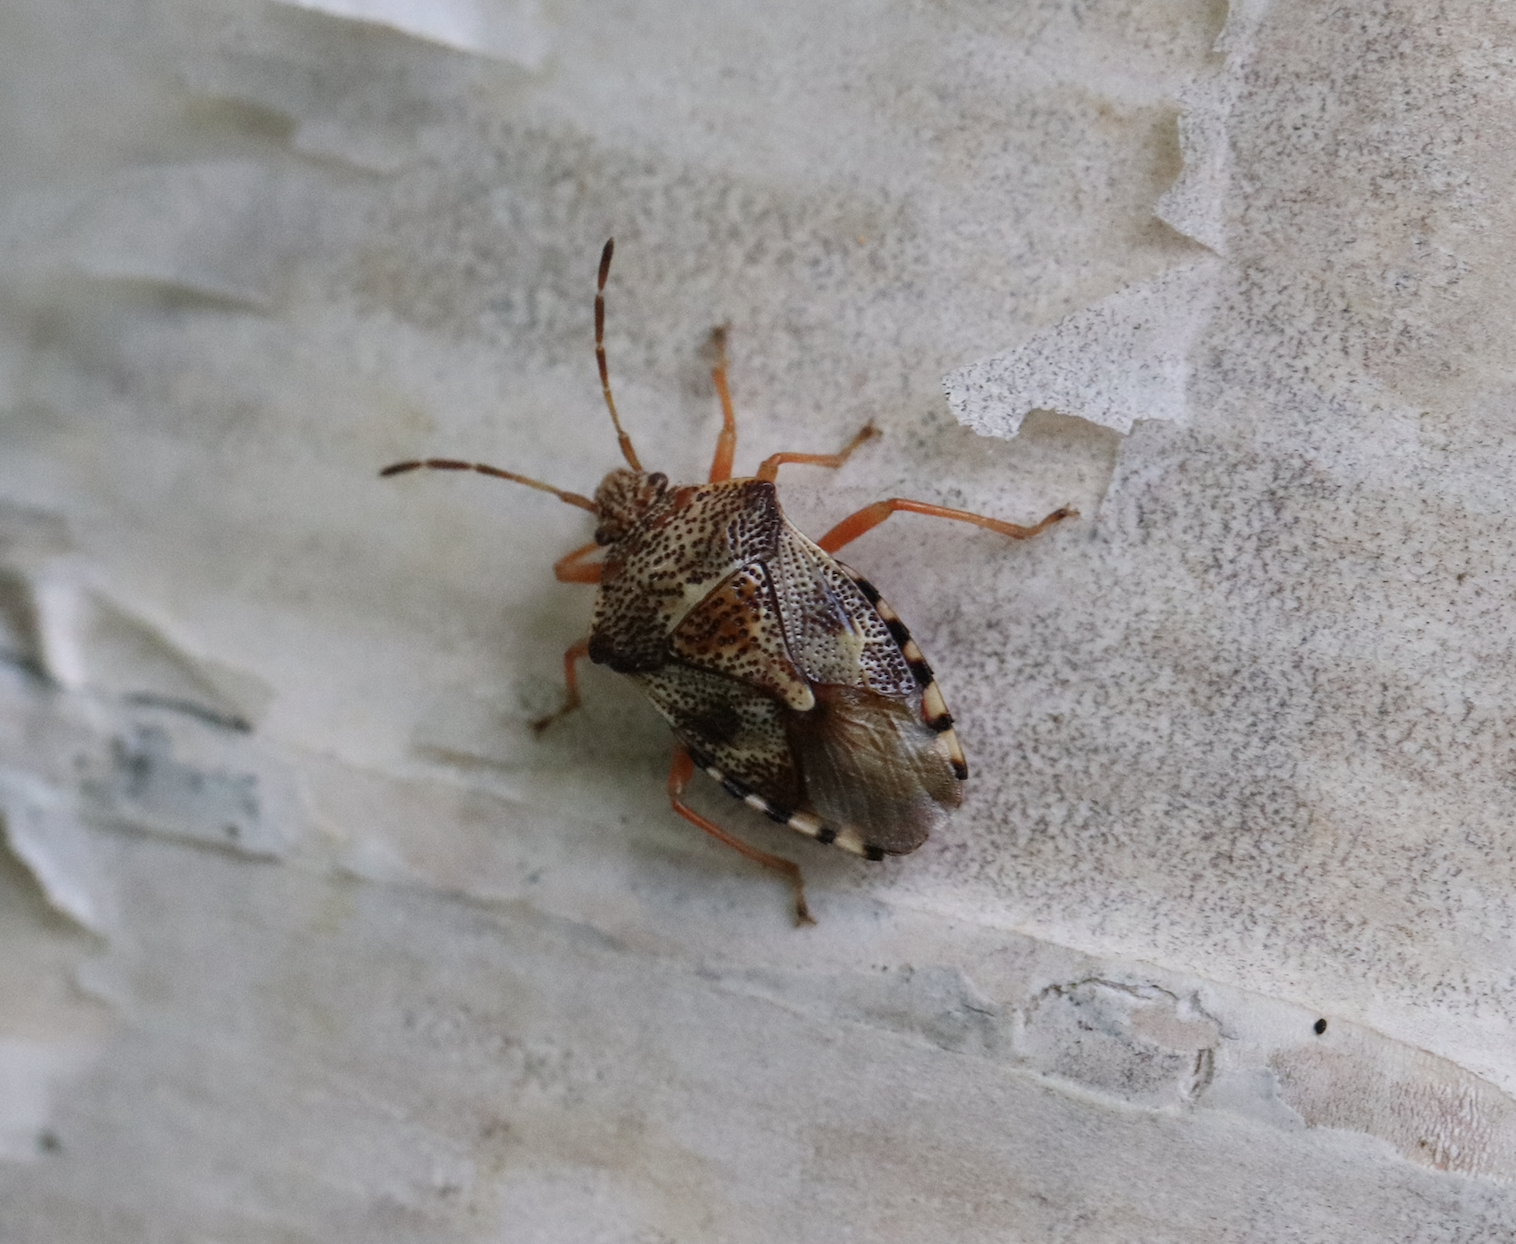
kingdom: Animalia
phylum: Arthropoda
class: Insecta
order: Hemiptera
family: Acanthosomatidae
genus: Elasmucha
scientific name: Elasmucha lateralis
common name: Shield bug
